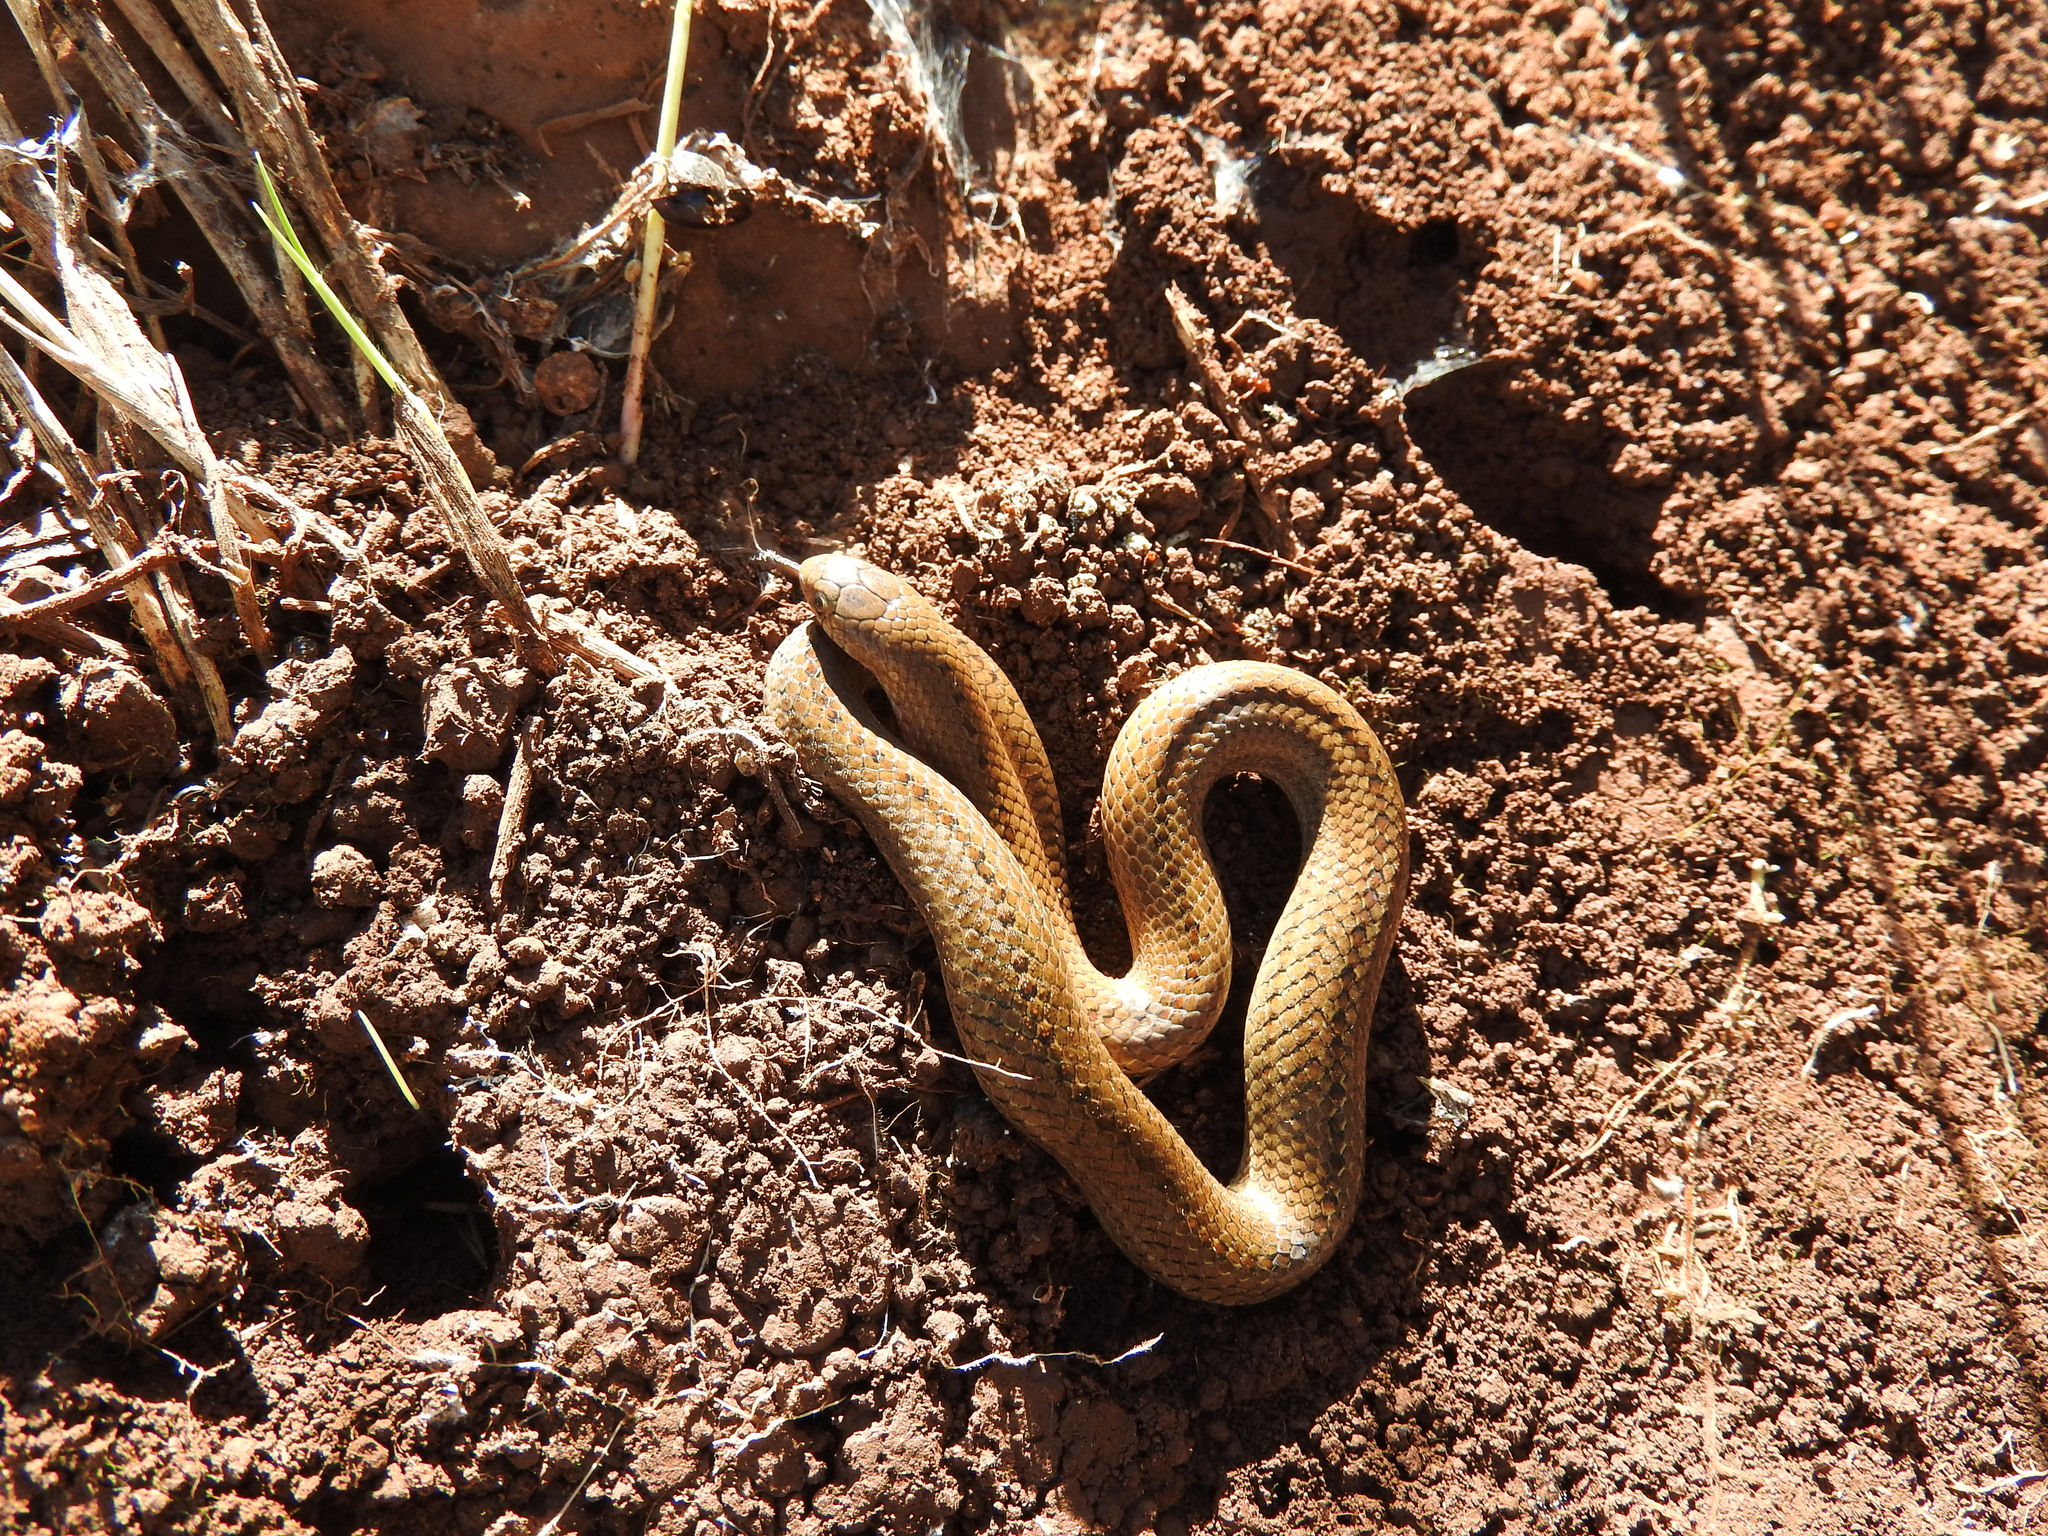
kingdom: Animalia
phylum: Chordata
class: Squamata
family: Colubridae
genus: Conopsis
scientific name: Conopsis lineata
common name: Lined tolucan earthsnake
